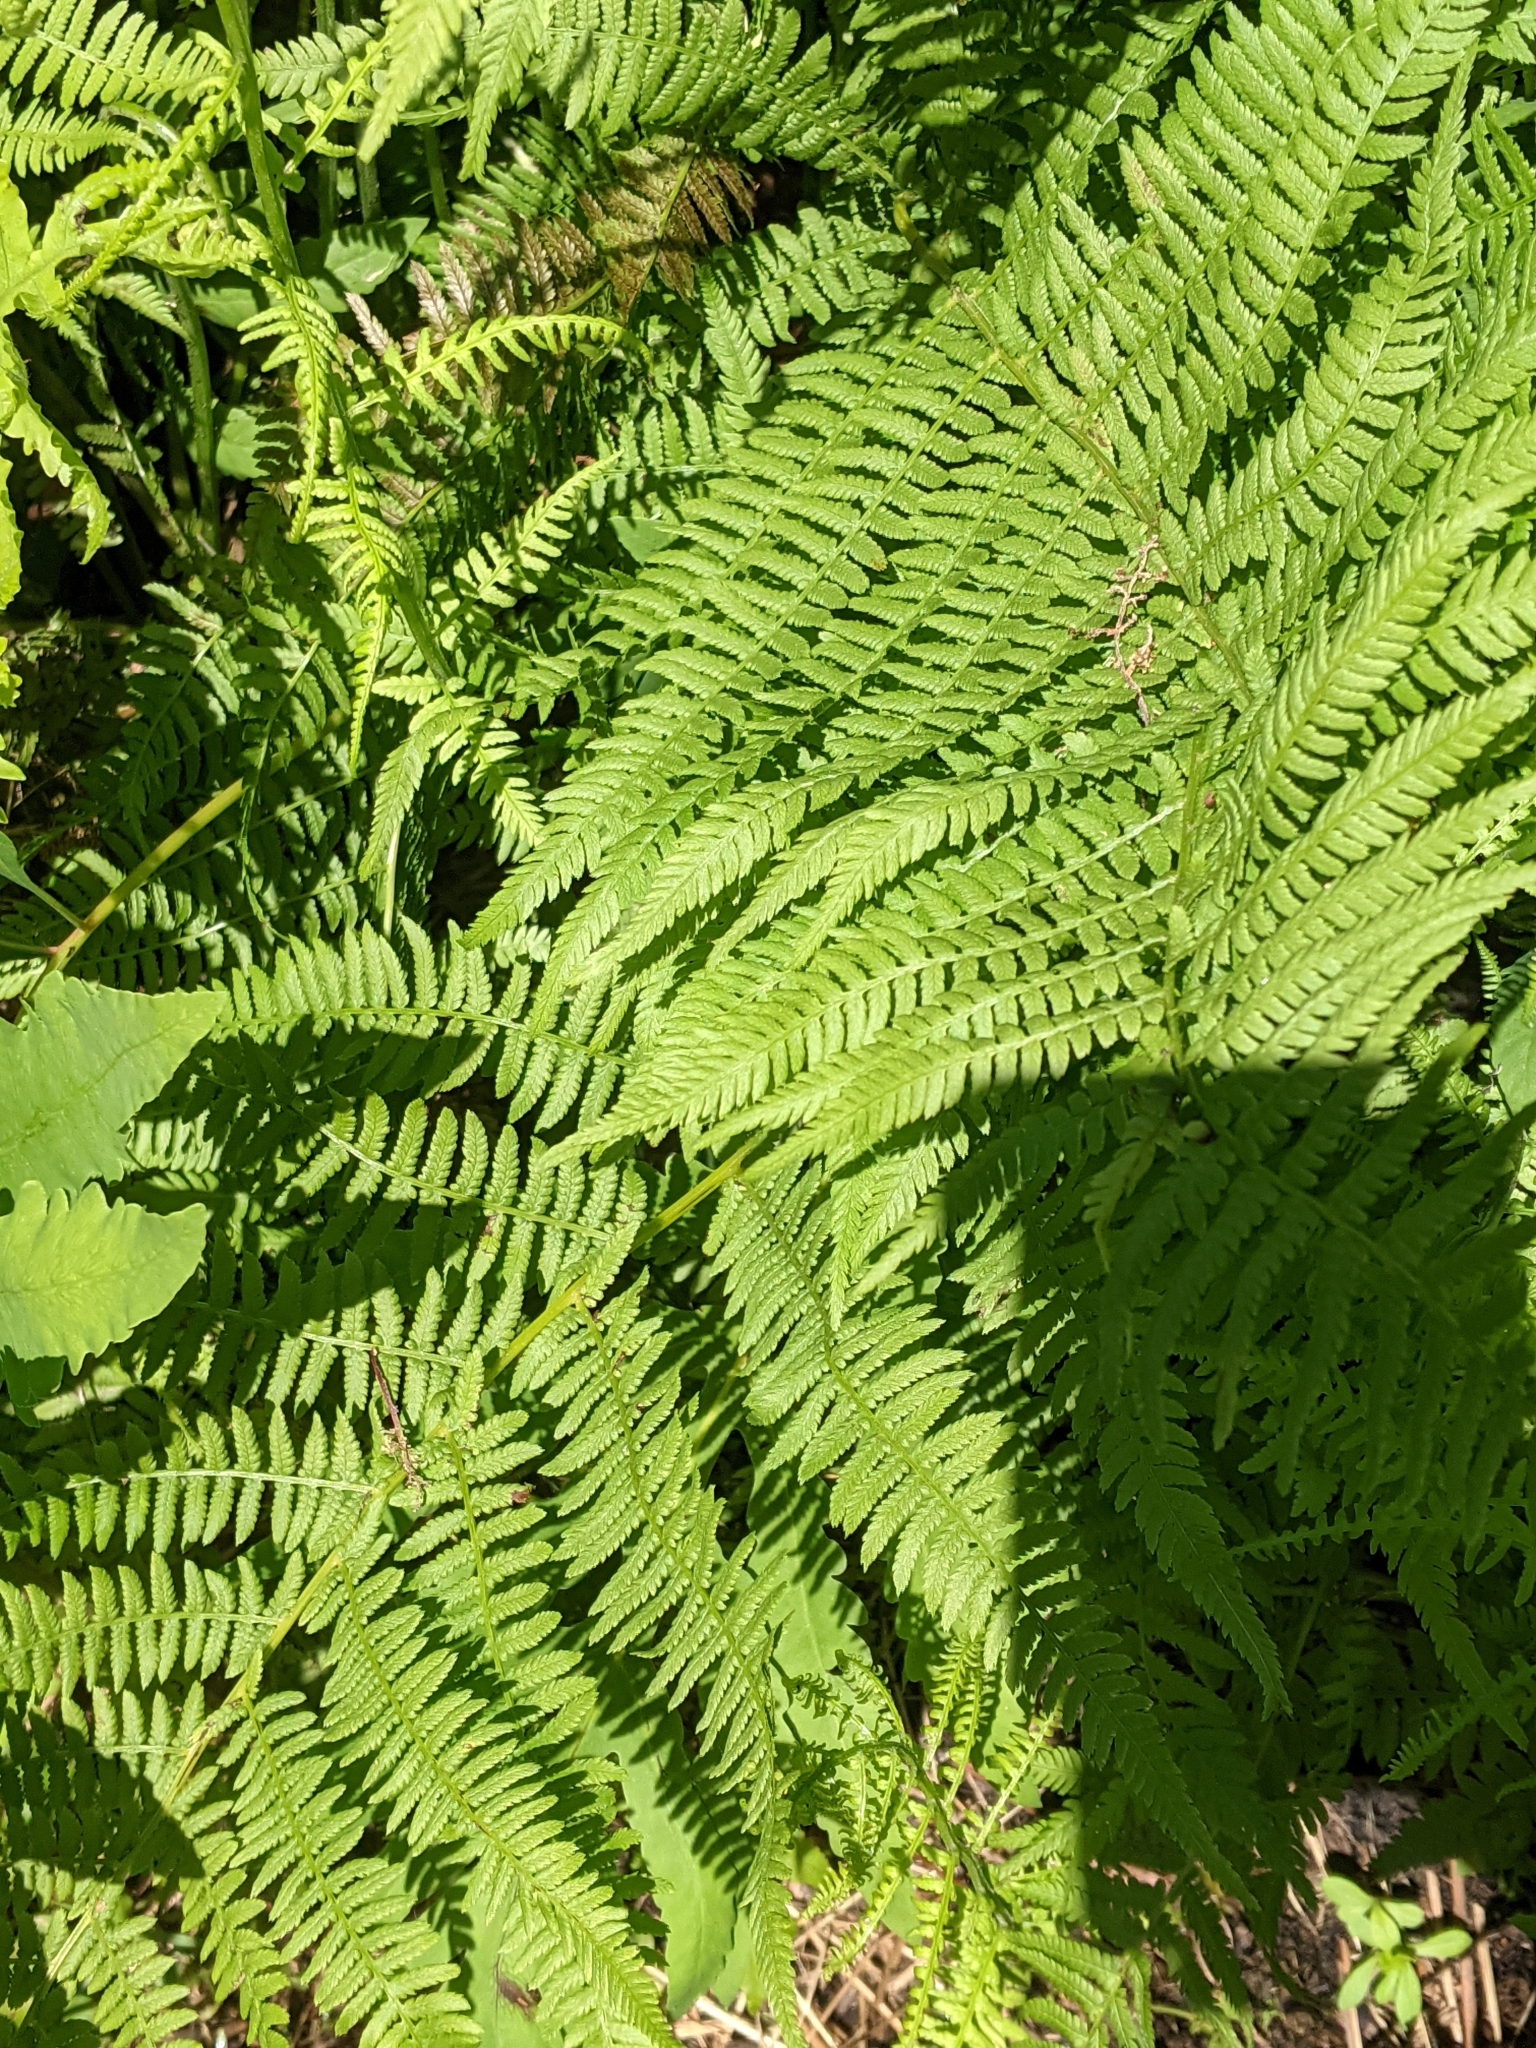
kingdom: Plantae
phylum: Tracheophyta
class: Polypodiopsida
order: Polypodiales
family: Athyriaceae
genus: Athyrium
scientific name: Athyrium angustum
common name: Northern lady fern
